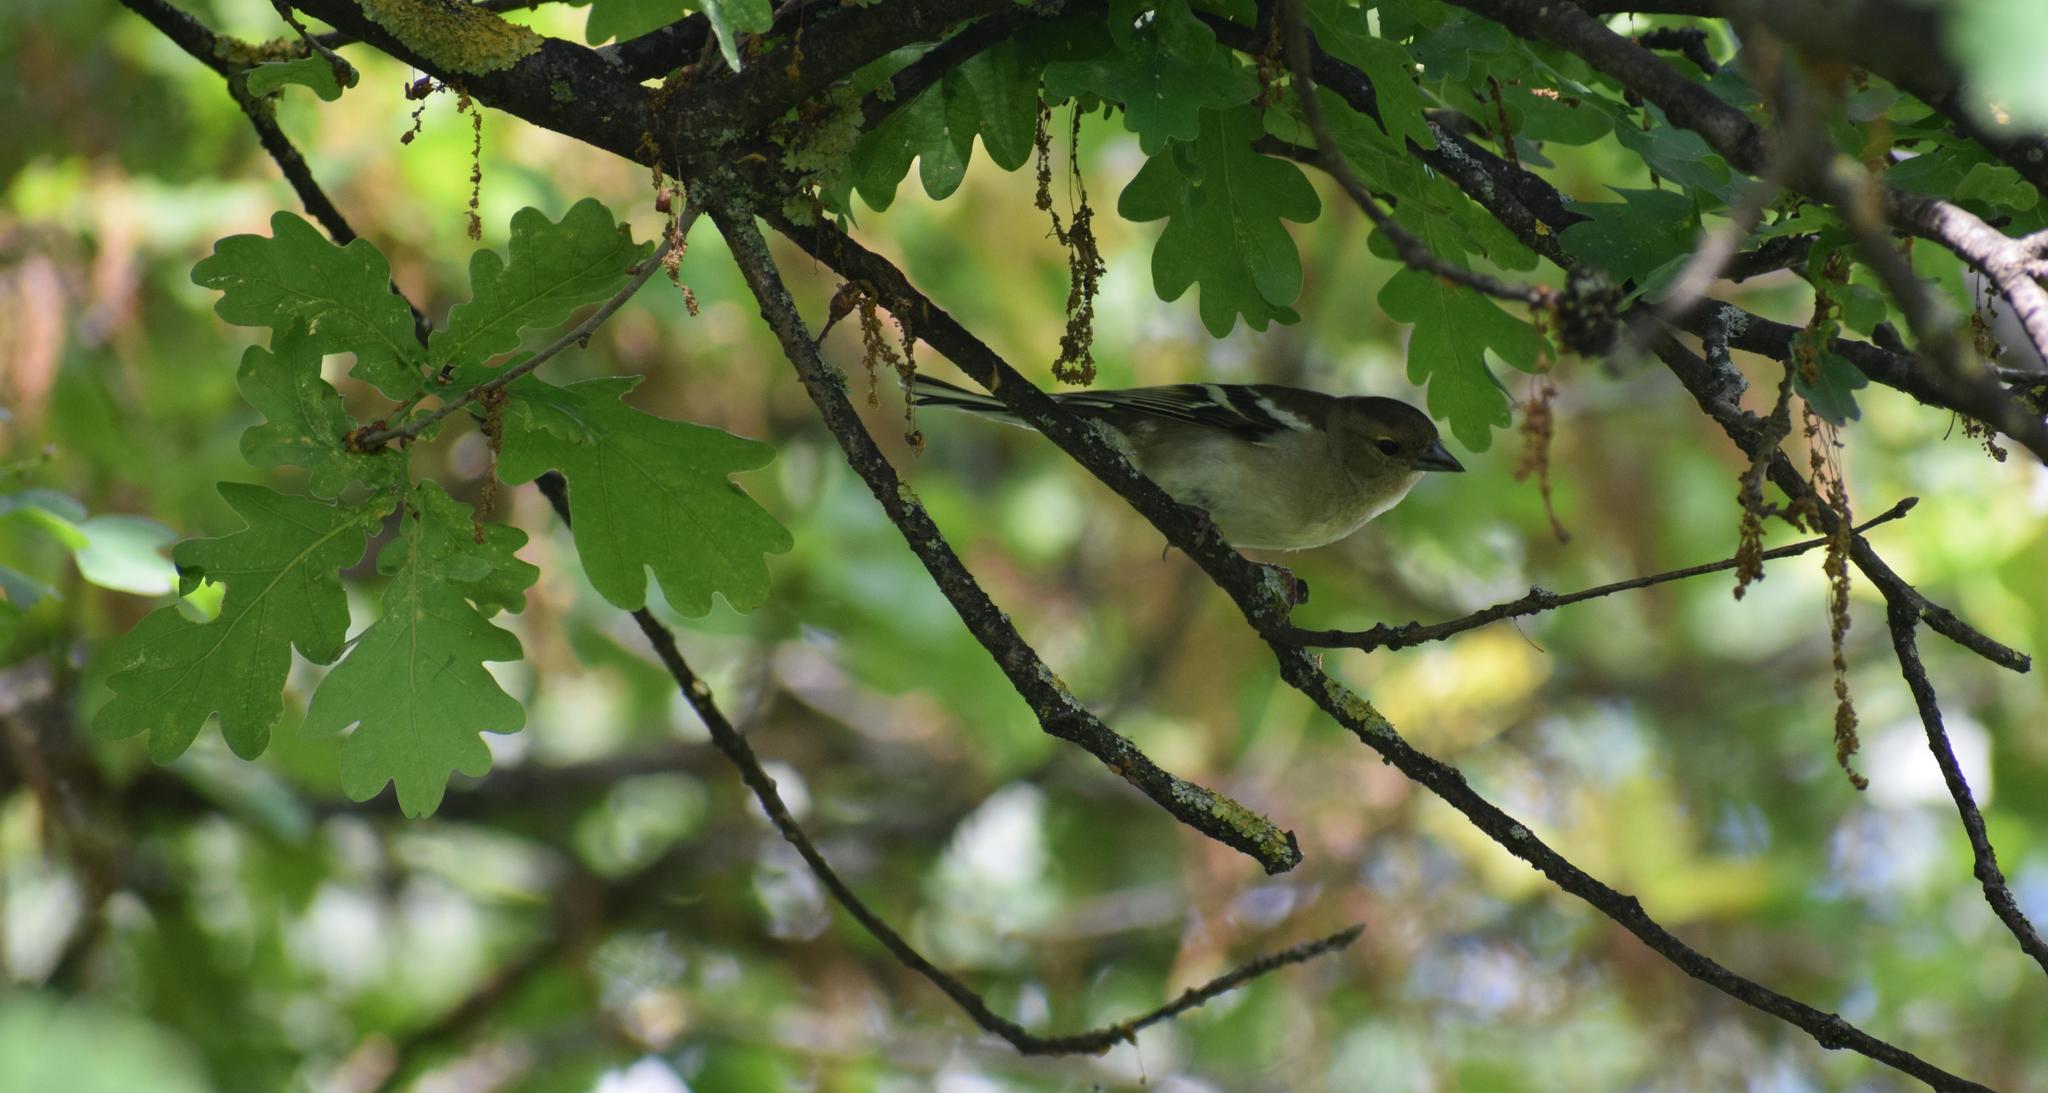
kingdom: Animalia
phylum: Chordata
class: Aves
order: Passeriformes
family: Fringillidae
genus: Fringilla
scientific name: Fringilla coelebs
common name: Common chaffinch
